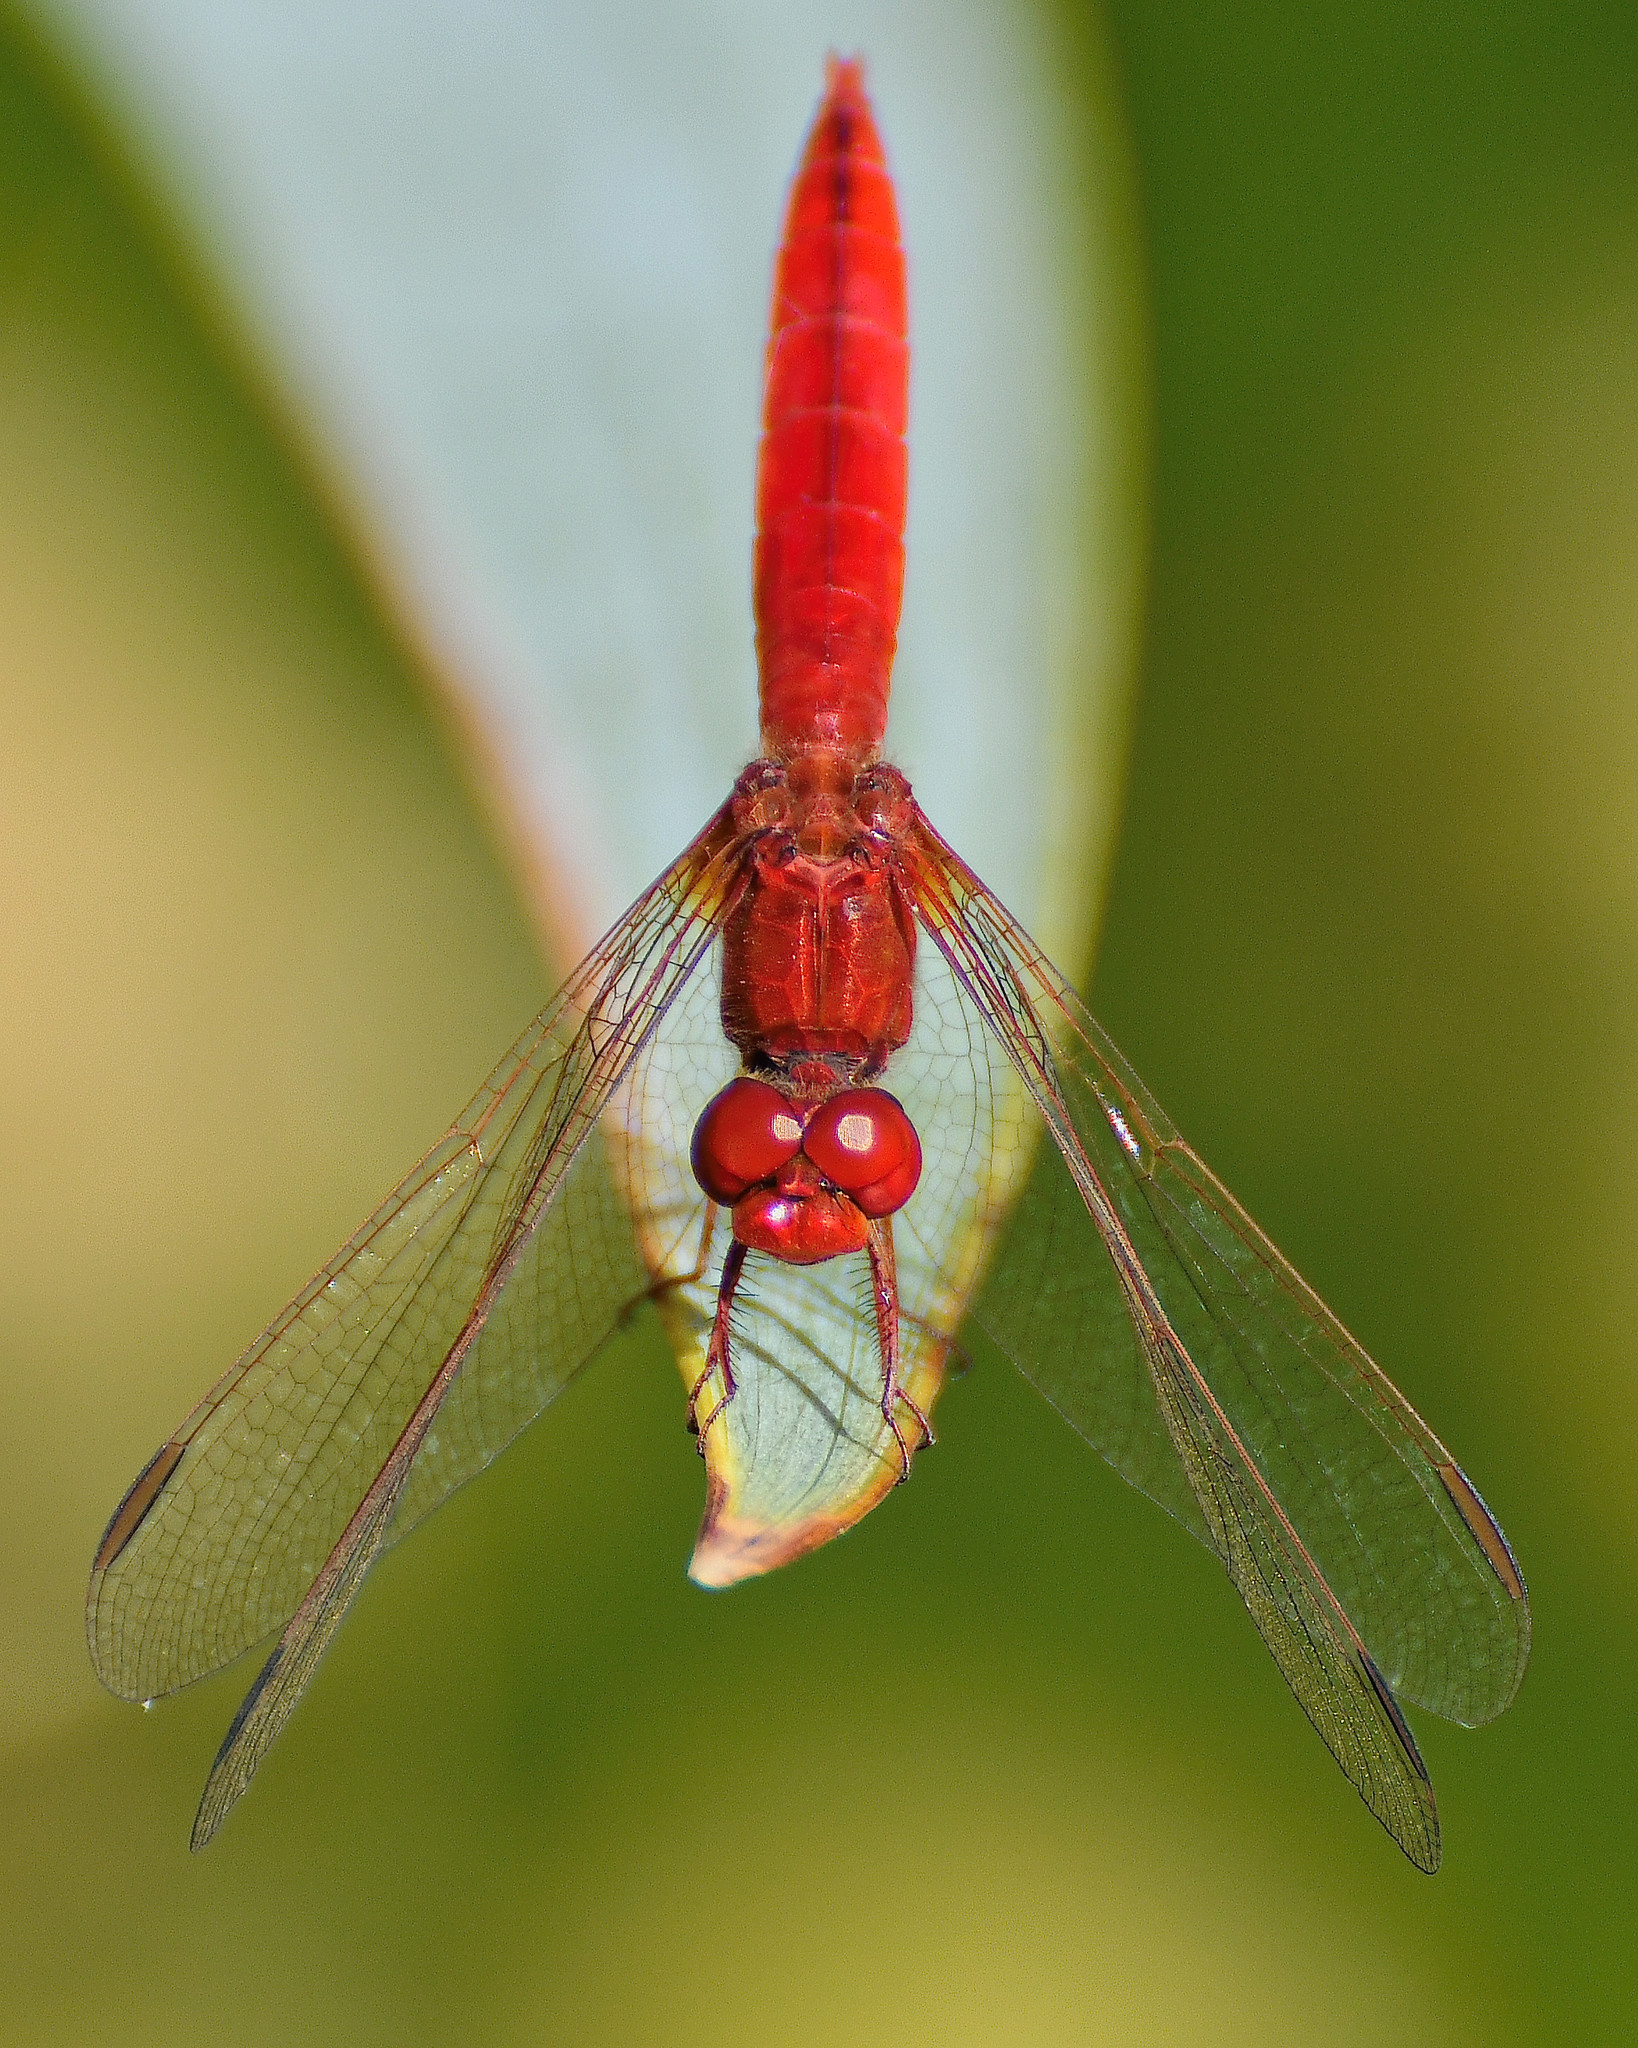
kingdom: Animalia
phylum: Arthropoda
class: Insecta
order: Odonata
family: Libellulidae
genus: Crocothemis
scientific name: Crocothemis erythraea
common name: Scarlet dragonfly
